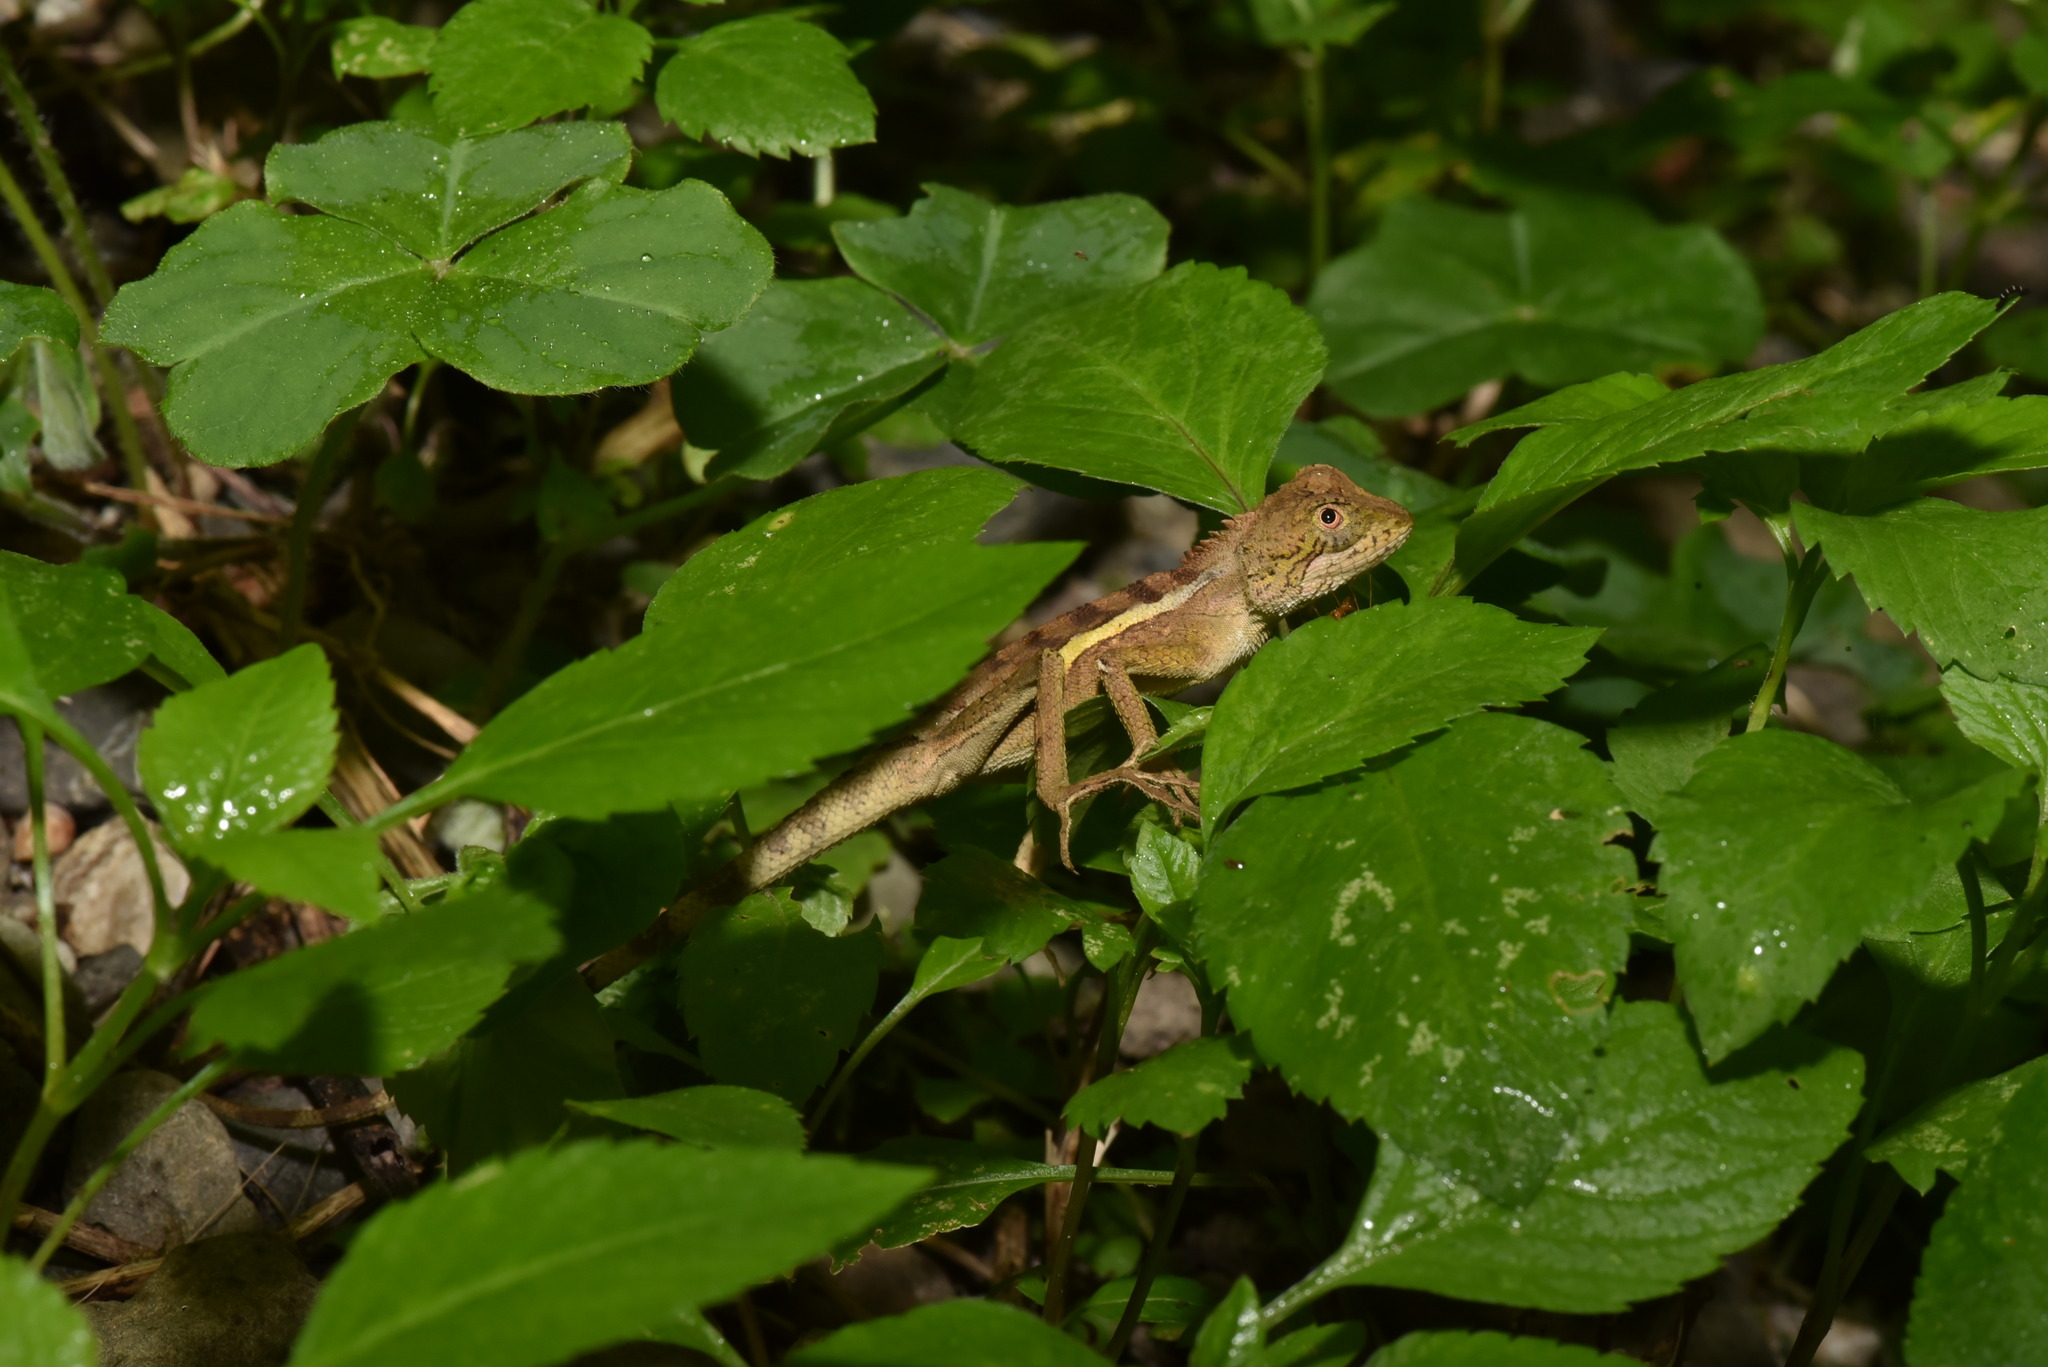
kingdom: Animalia
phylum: Chordata
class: Squamata
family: Agamidae
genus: Diploderma
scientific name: Diploderma swinhonis
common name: Taiwan japalure
